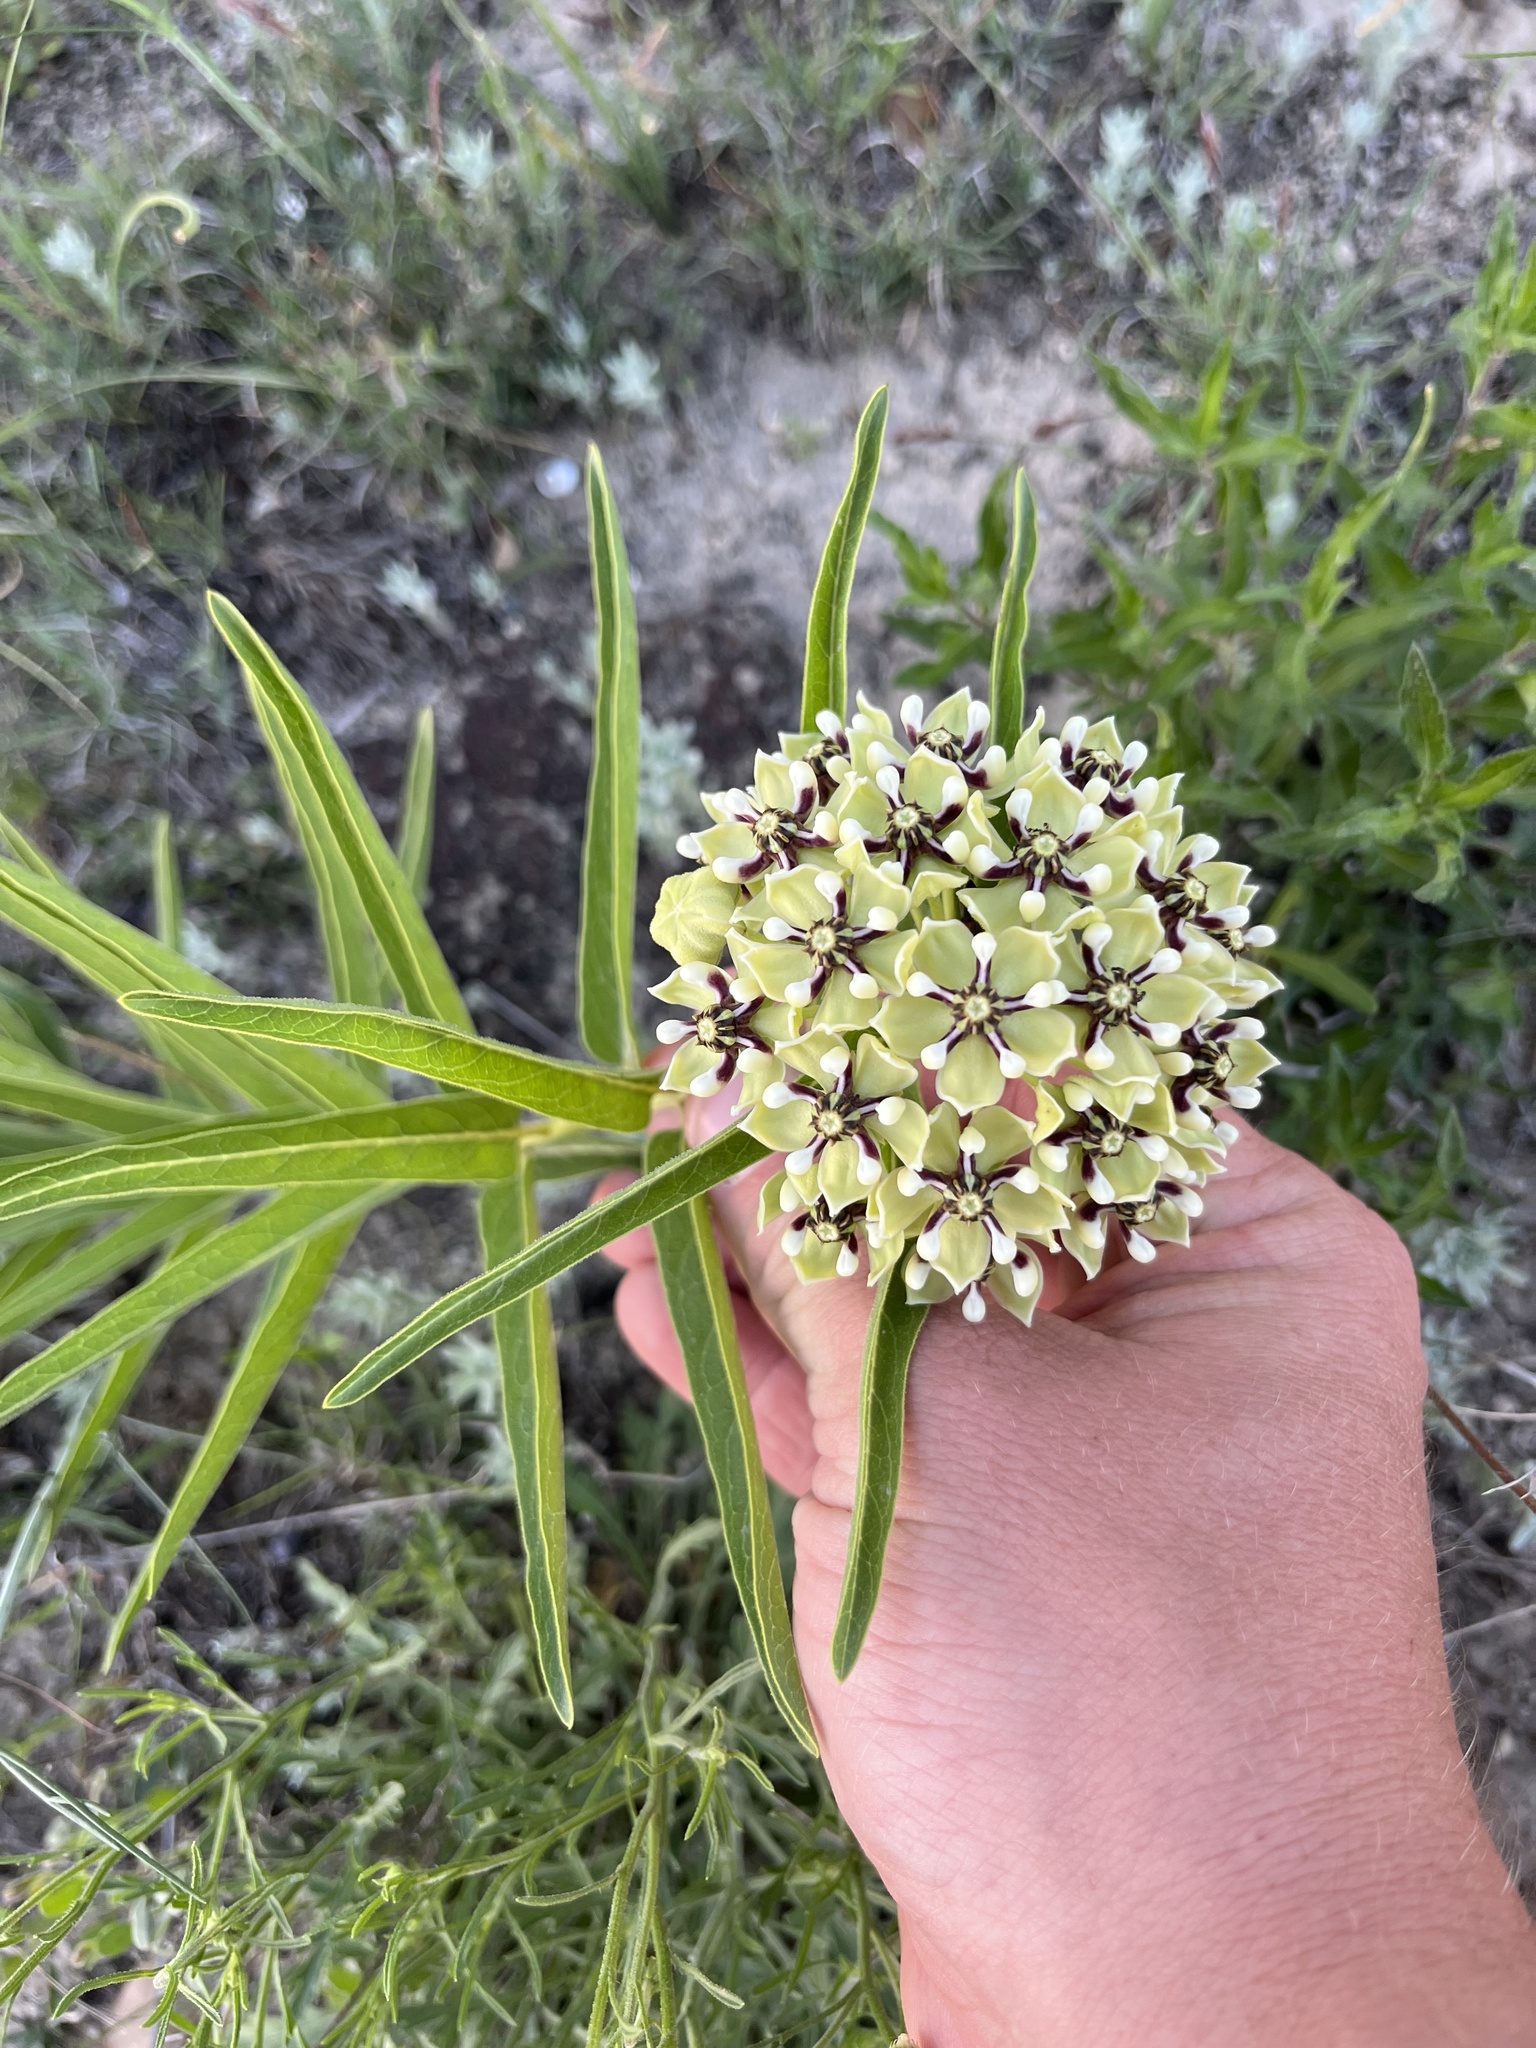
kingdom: Plantae
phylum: Tracheophyta
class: Magnoliopsida
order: Gentianales
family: Apocynaceae
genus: Asclepias
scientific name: Asclepias asperula
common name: Antelope horns
